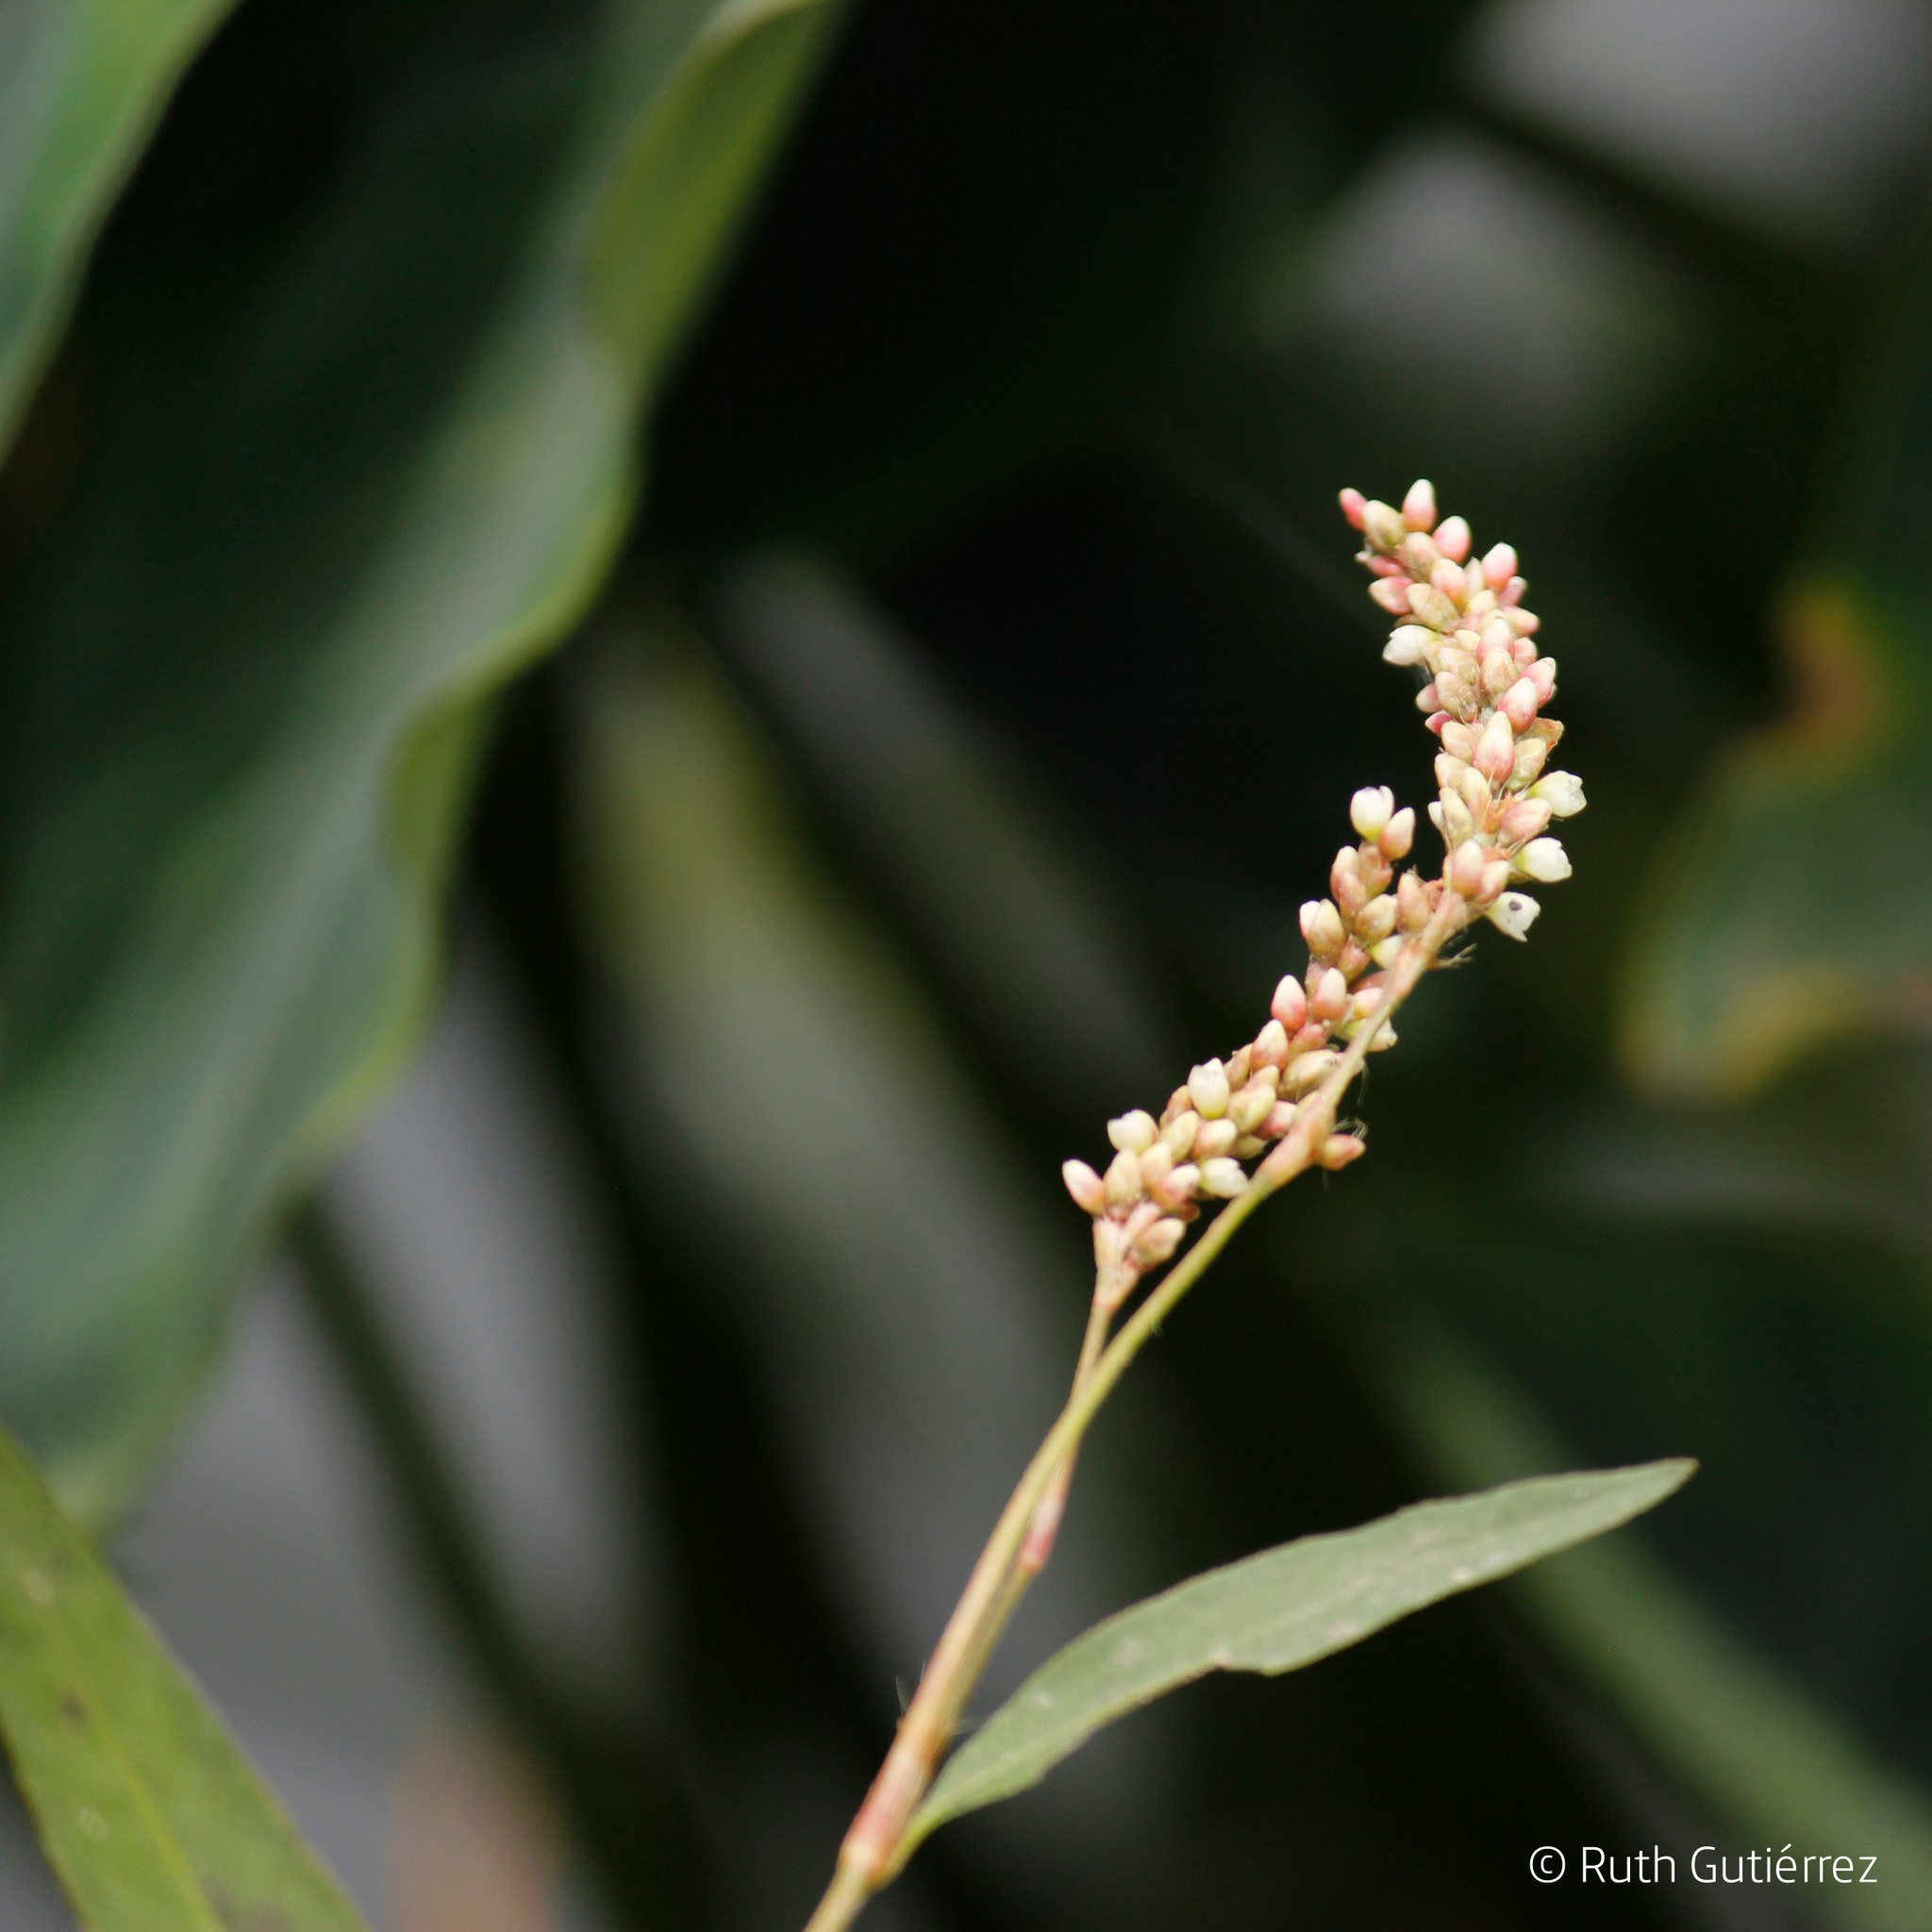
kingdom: Plantae
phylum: Tracheophyta
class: Magnoliopsida
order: Caryophyllales
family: Polygonaceae
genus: Persicaria
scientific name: Persicaria hydropiperoides
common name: Swamp smartweed
